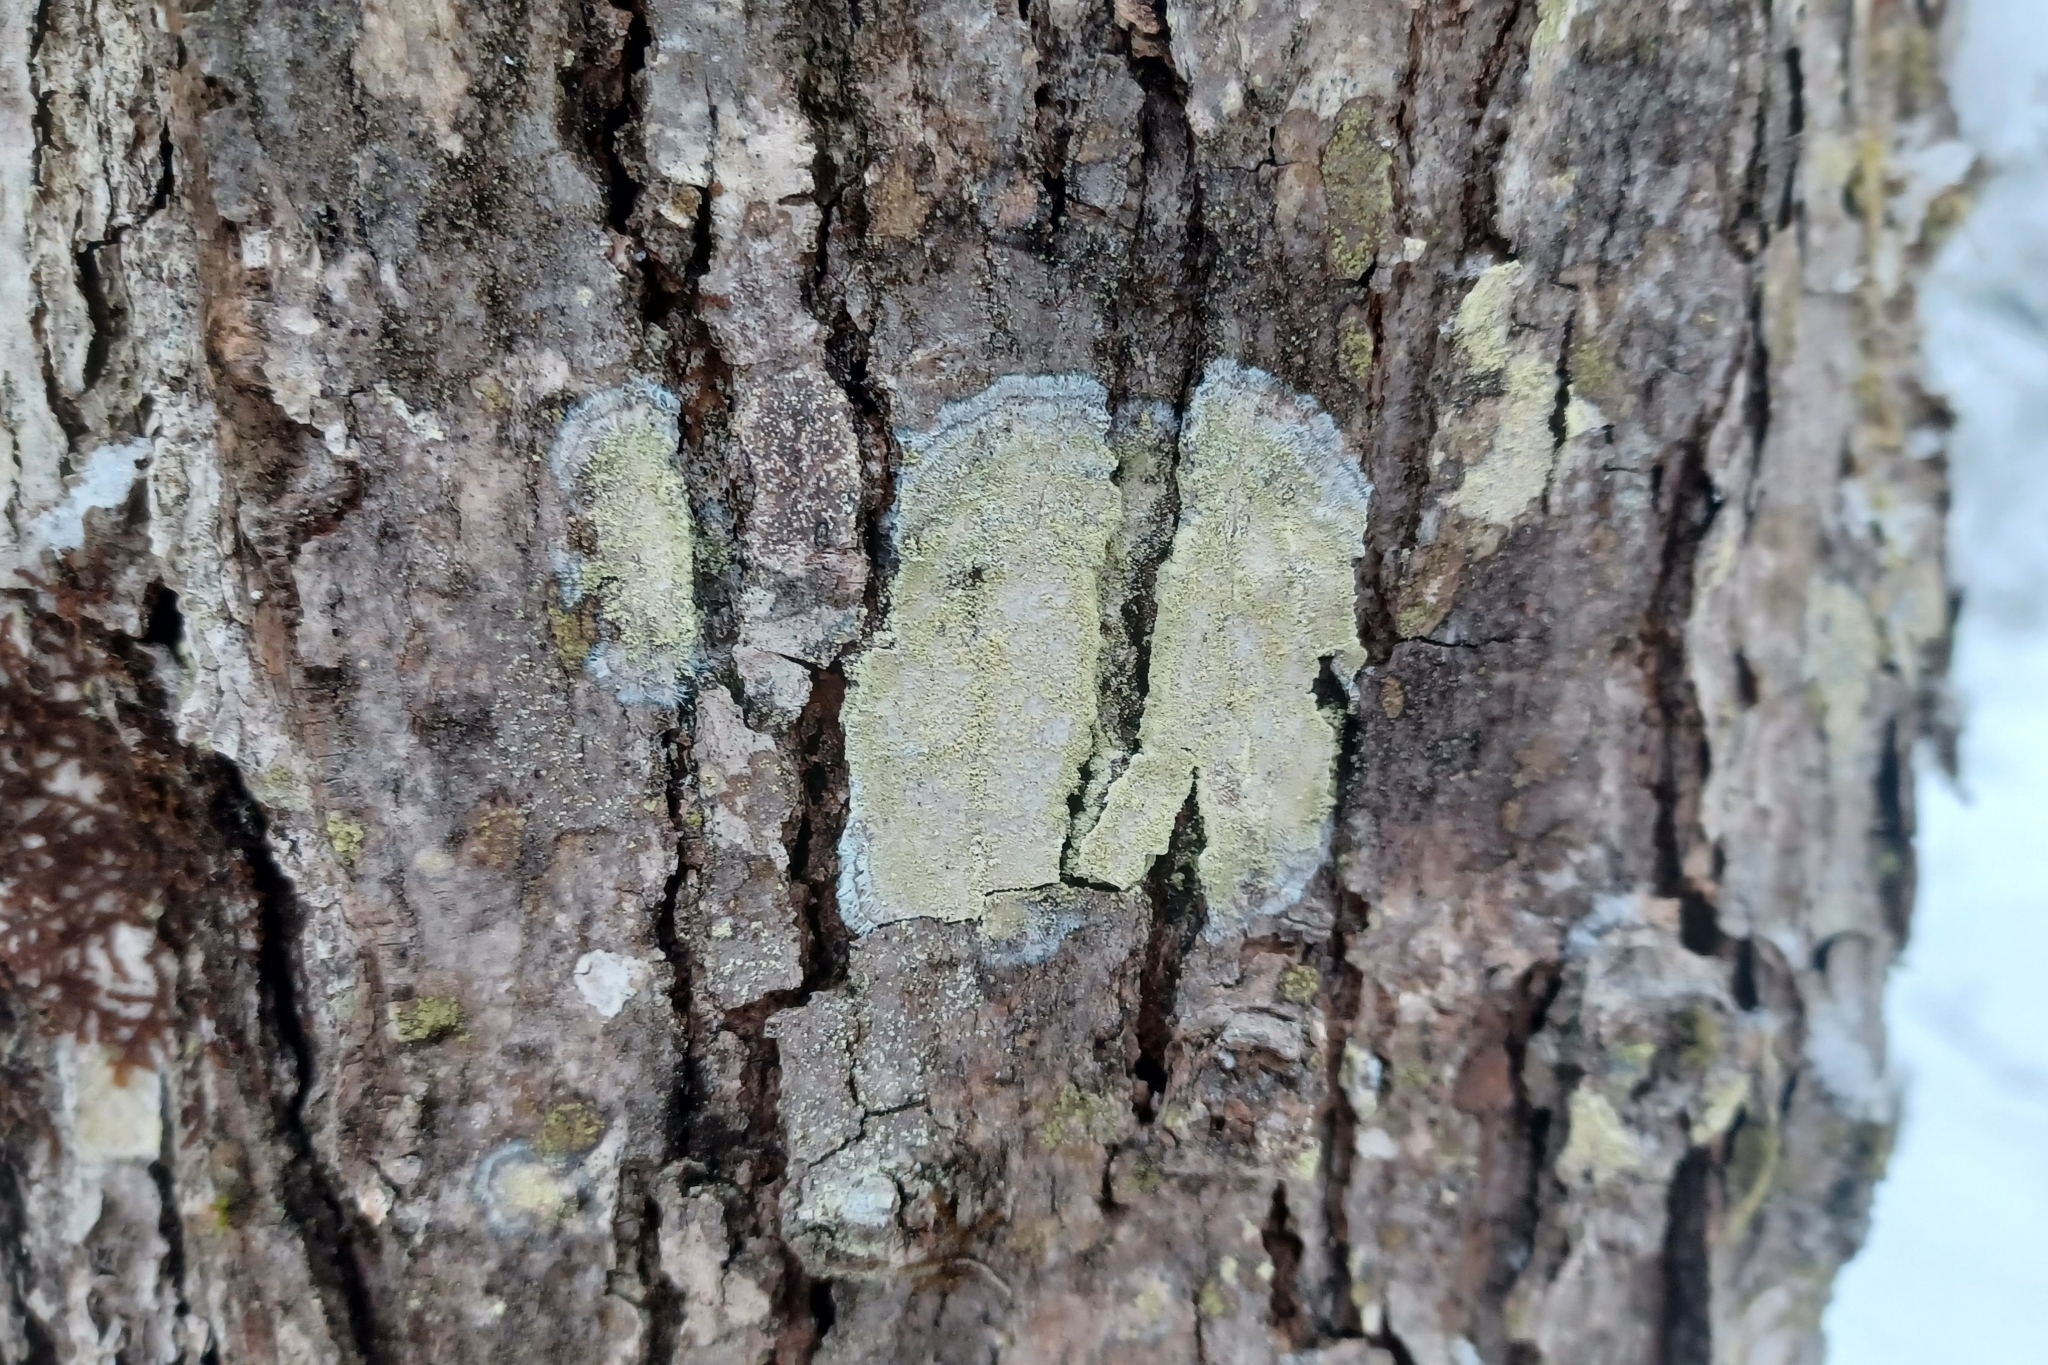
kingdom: Fungi
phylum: Ascomycota
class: Lecanoromycetes
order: Pertusariales
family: Pertusariaceae
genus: Verseghya
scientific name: Verseghya thysanophora
